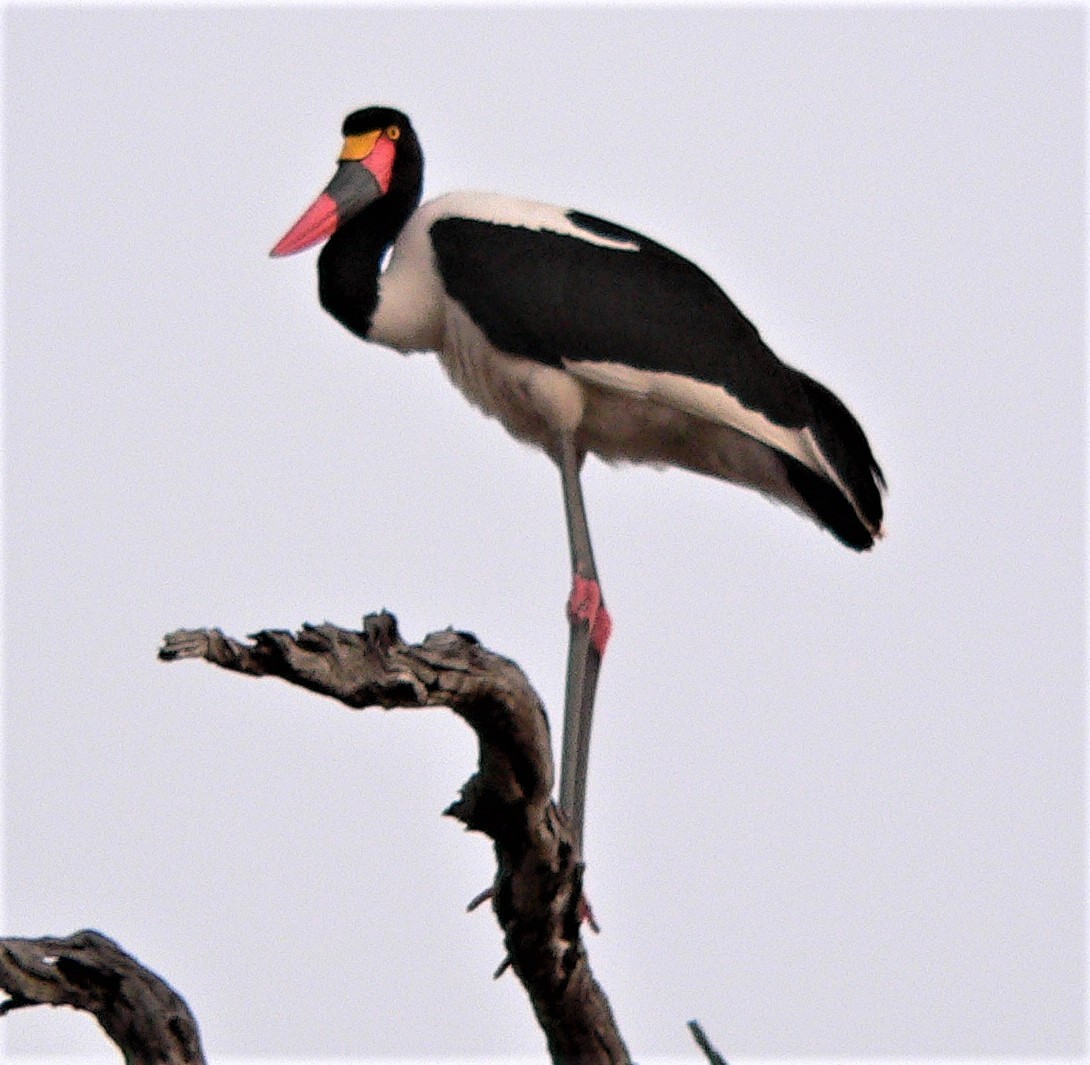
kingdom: Animalia
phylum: Chordata
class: Aves
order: Ciconiiformes
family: Ciconiidae
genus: Ephippiorhynchus
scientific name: Ephippiorhynchus senegalensis
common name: Saddle-billed stork
